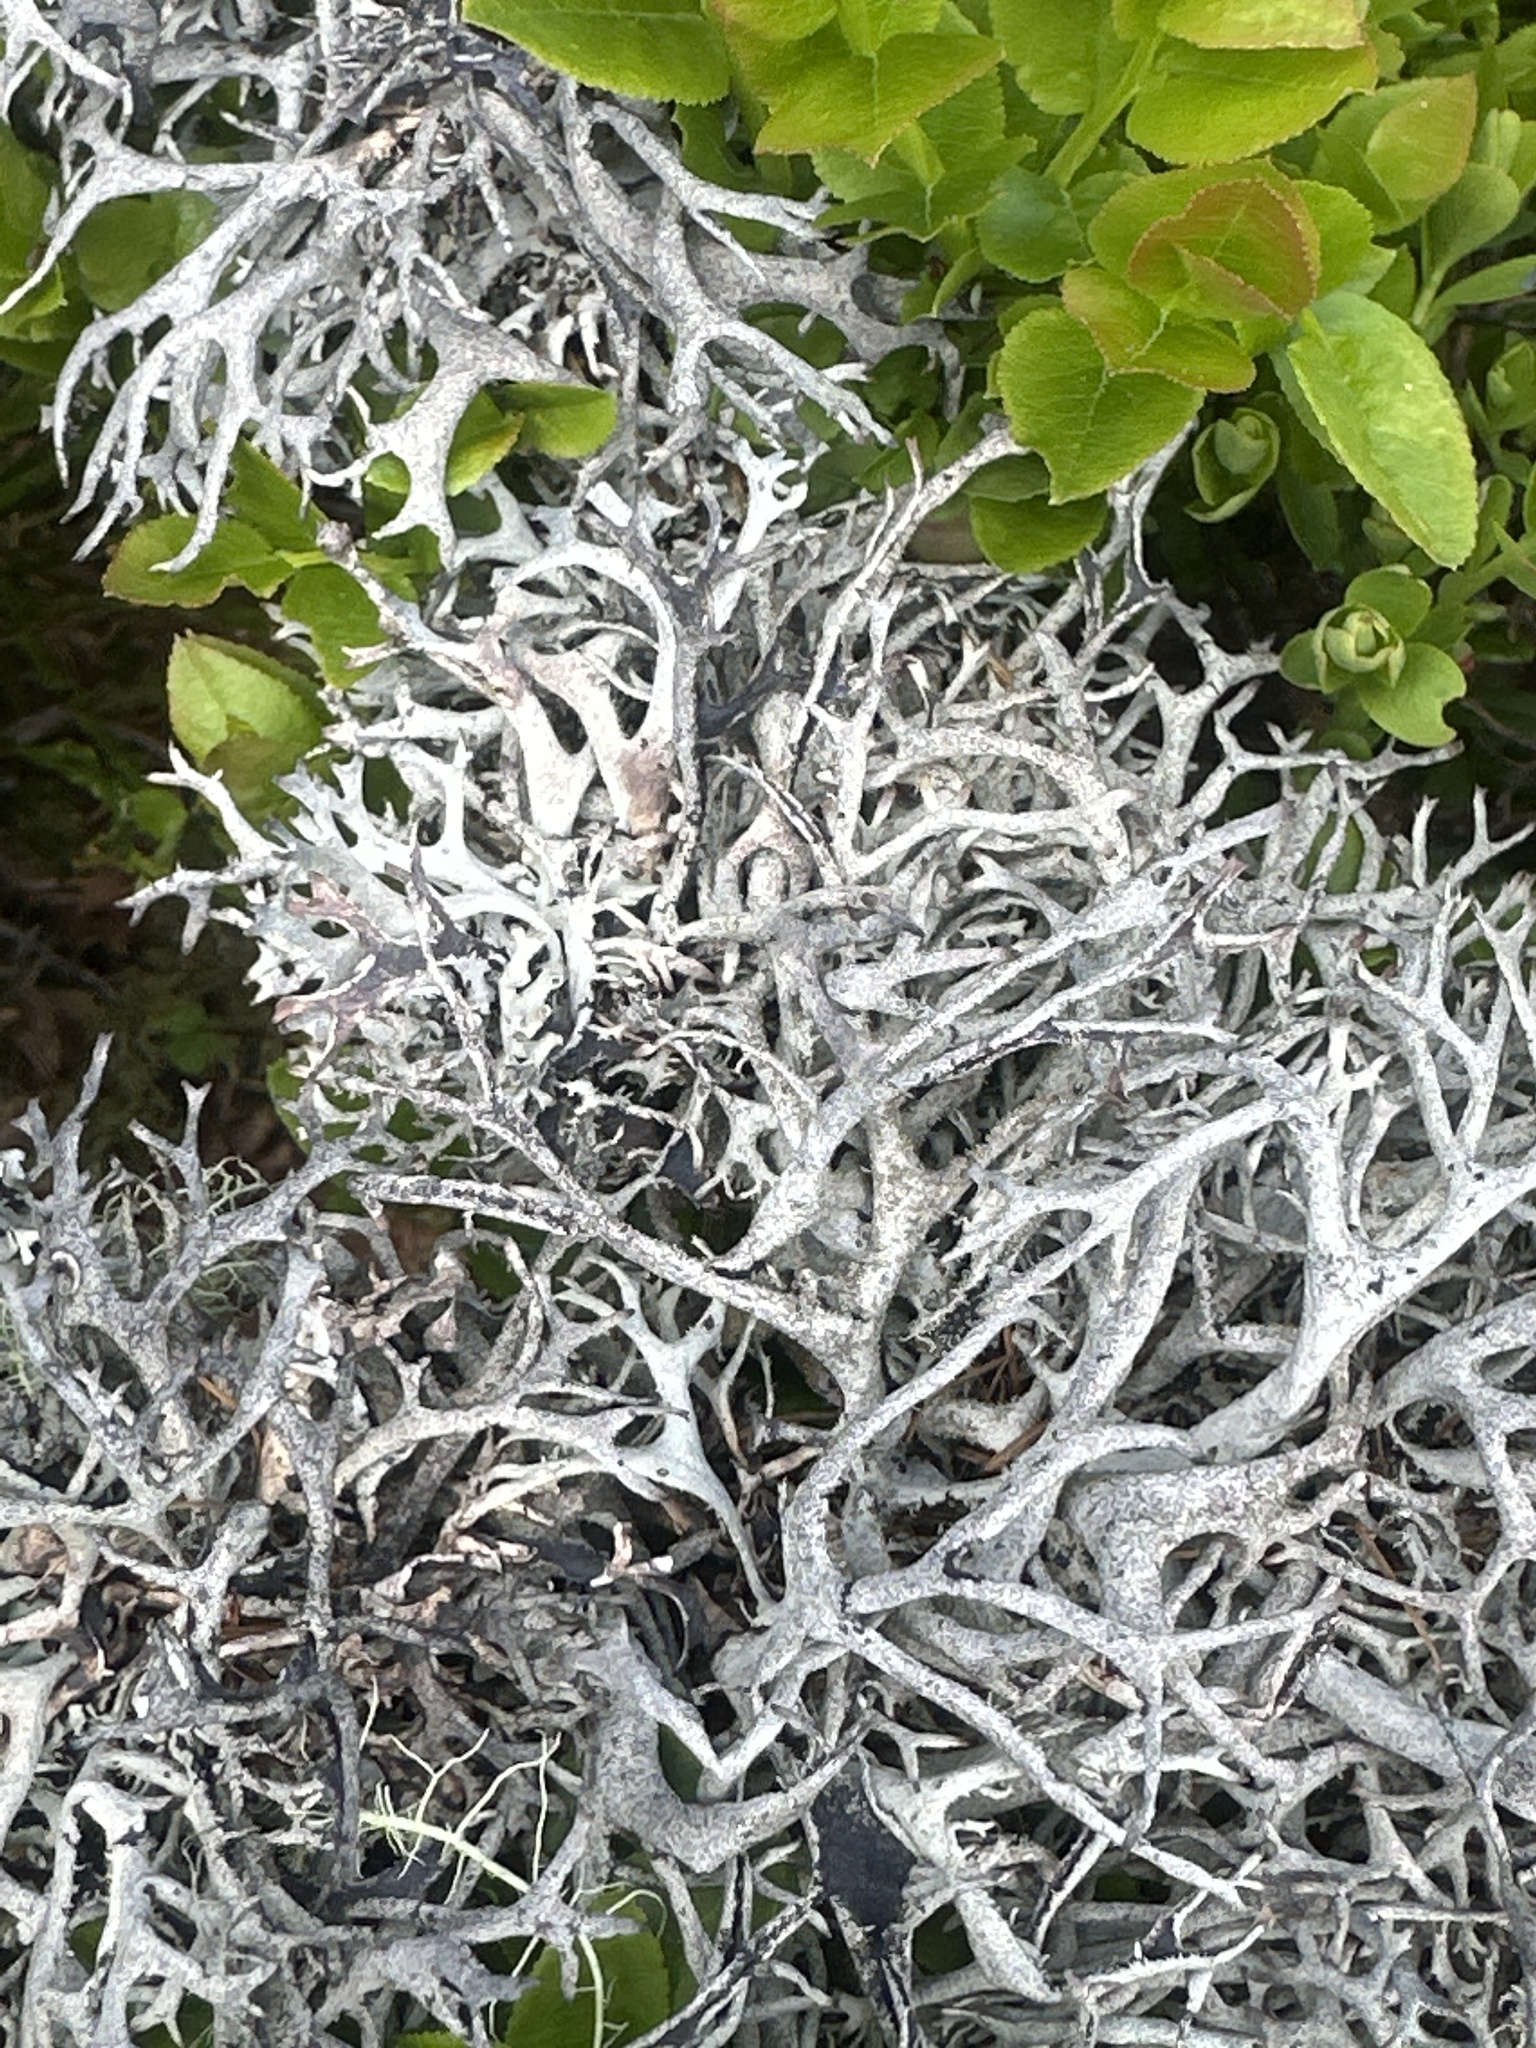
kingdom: Fungi
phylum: Ascomycota
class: Lecanoromycetes
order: Lecanorales
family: Parmeliaceae
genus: Pseudevernia
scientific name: Pseudevernia furfuracea
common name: Tree moss
